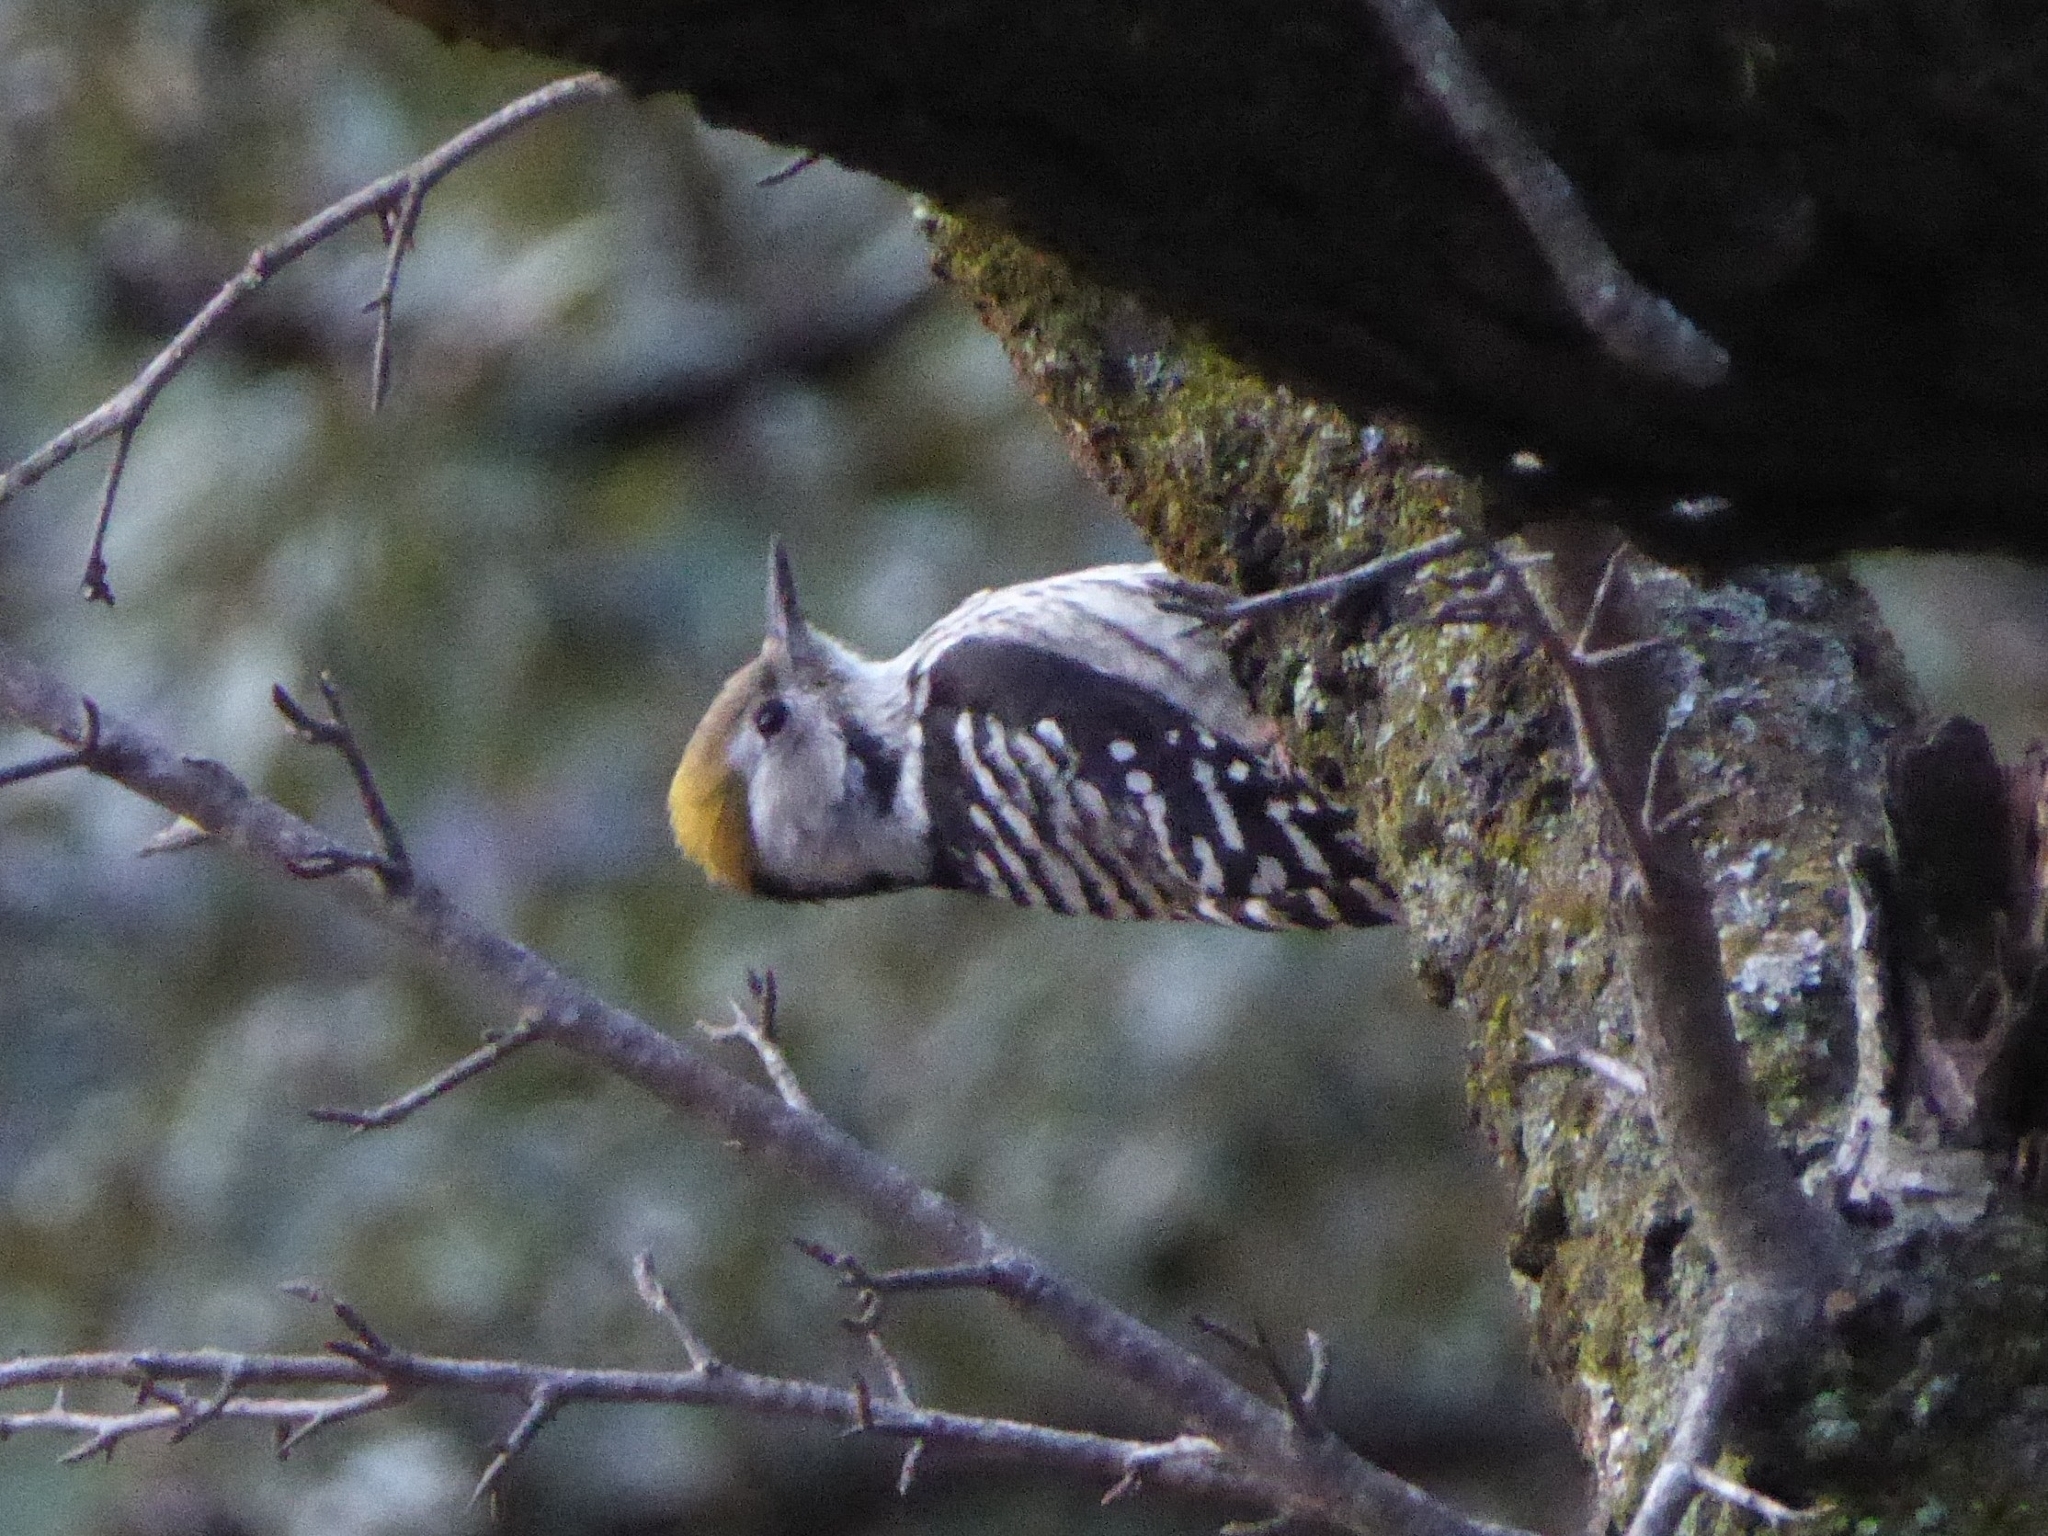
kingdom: Animalia
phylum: Chordata
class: Aves
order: Piciformes
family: Picidae
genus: Dendrocoptes
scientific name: Dendrocoptes auriceps
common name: Brown-fronted woodpecker
